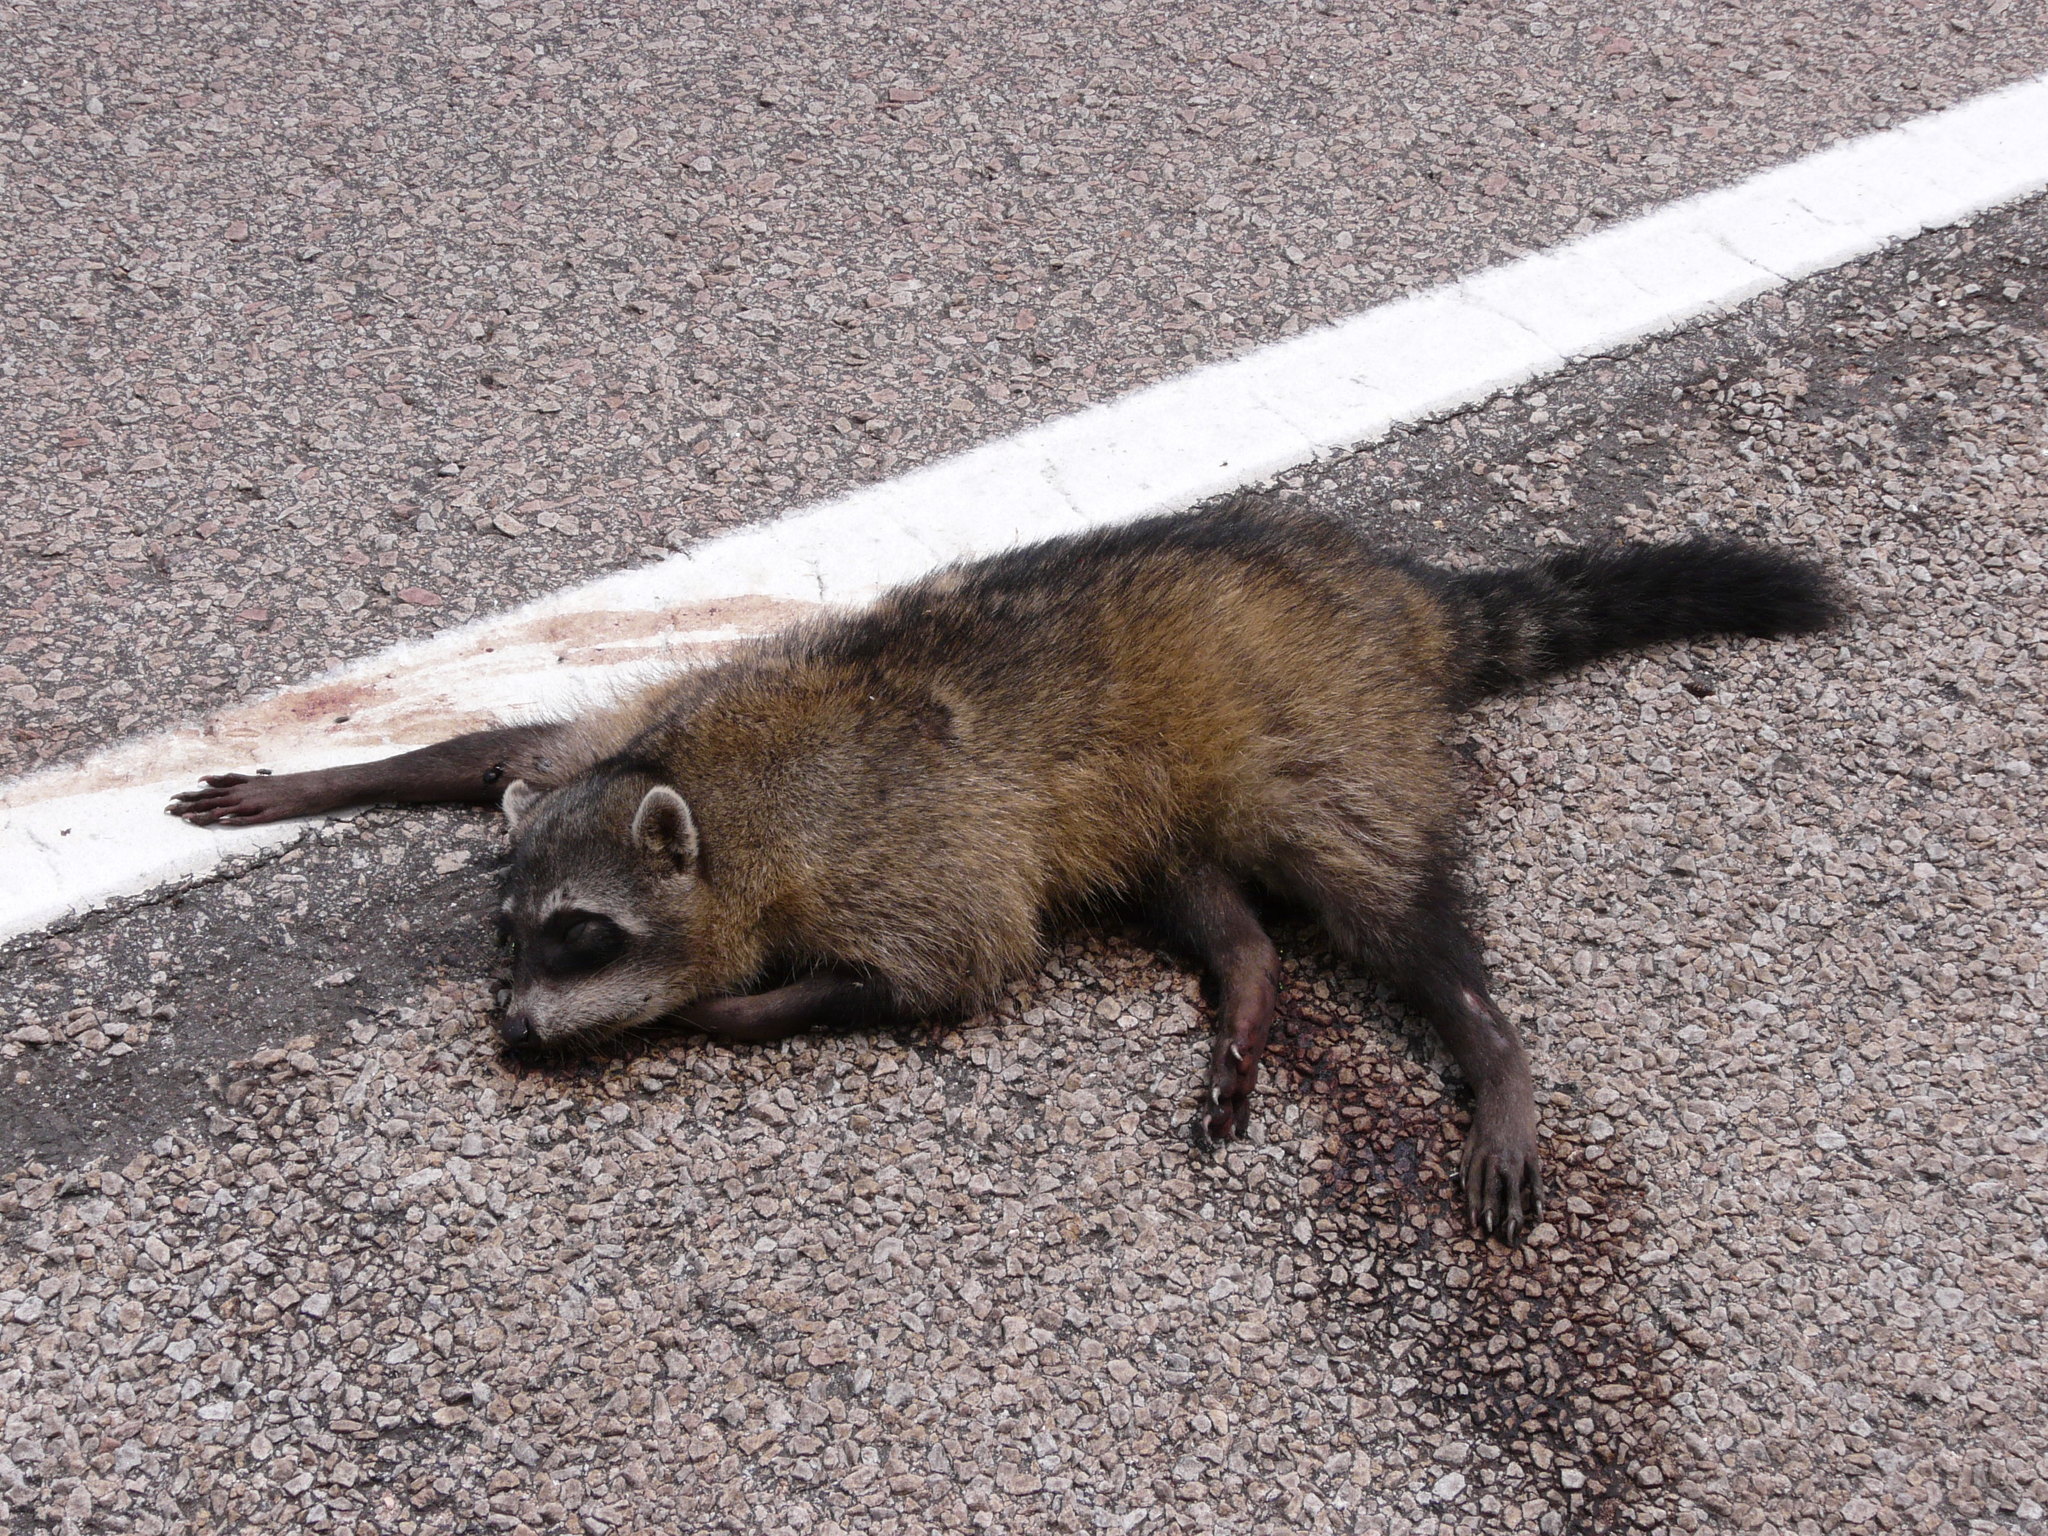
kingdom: Animalia
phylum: Chordata
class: Mammalia
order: Carnivora
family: Procyonidae
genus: Procyon
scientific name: Procyon cancrivorus
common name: Crab-eating raccoon
